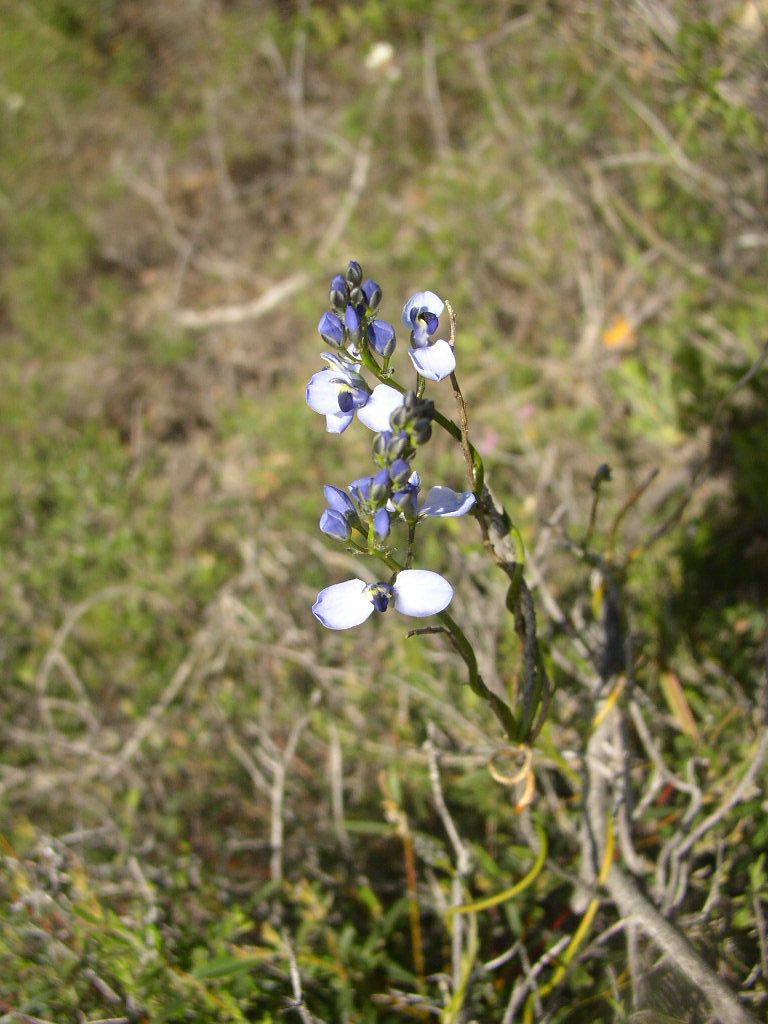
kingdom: Plantae
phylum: Tracheophyta
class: Magnoliopsida
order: Fabales
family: Polygalaceae
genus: Comesperma
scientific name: Comesperma volubile
